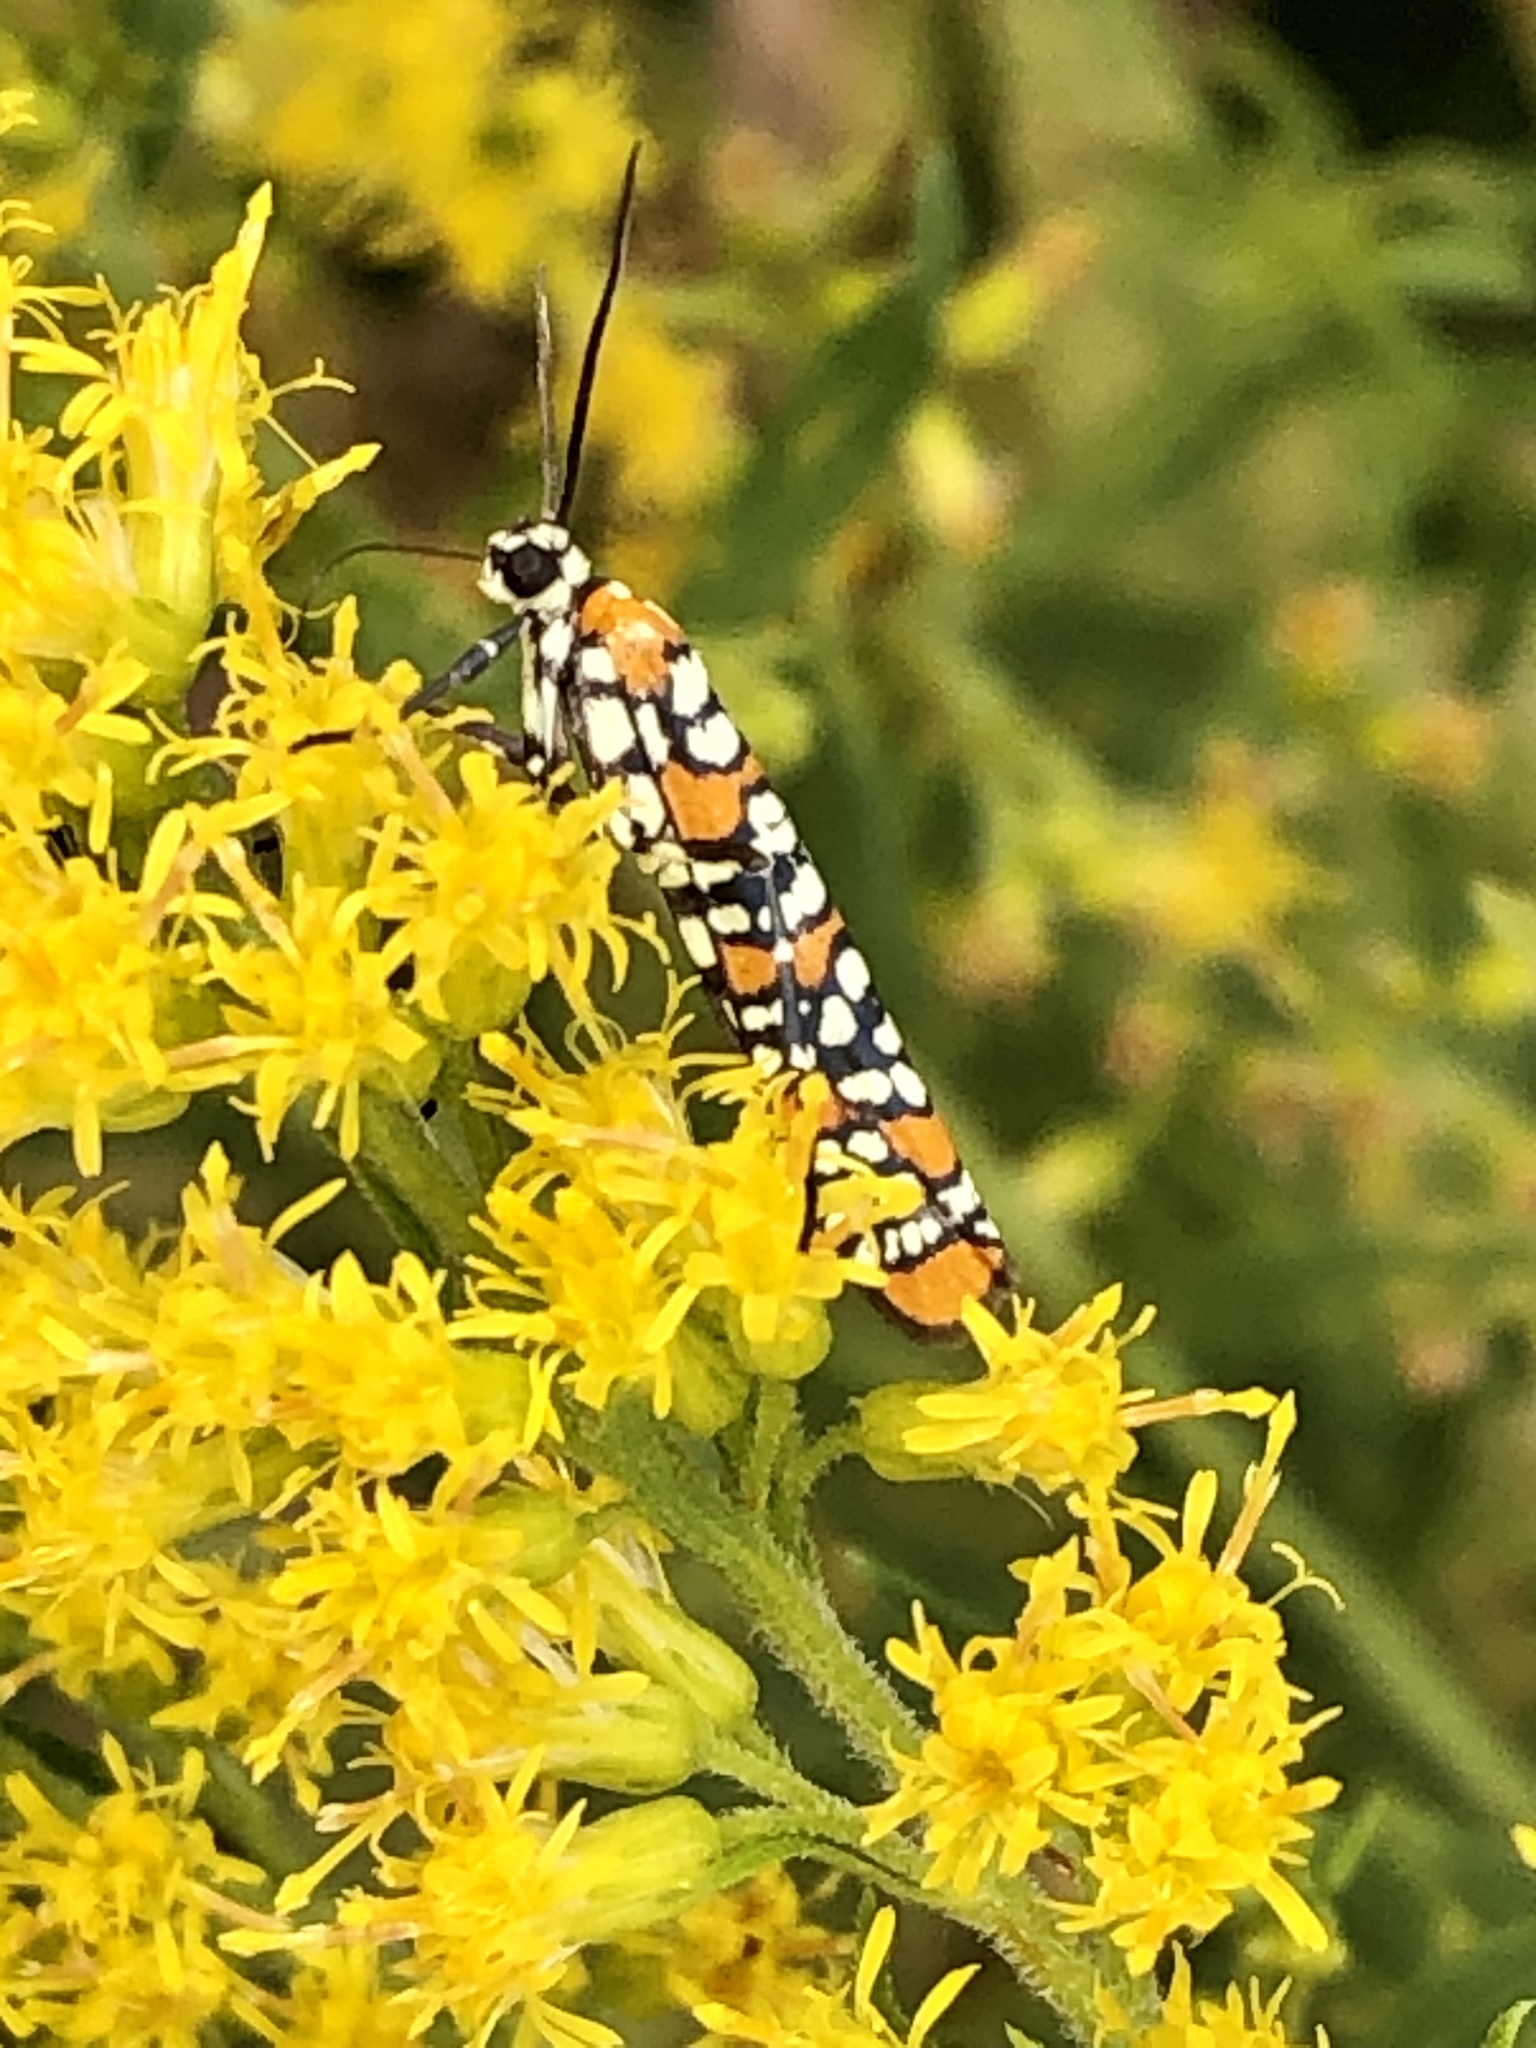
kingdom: Animalia
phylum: Arthropoda
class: Insecta
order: Lepidoptera
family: Attevidae
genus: Atteva
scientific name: Atteva punctella
